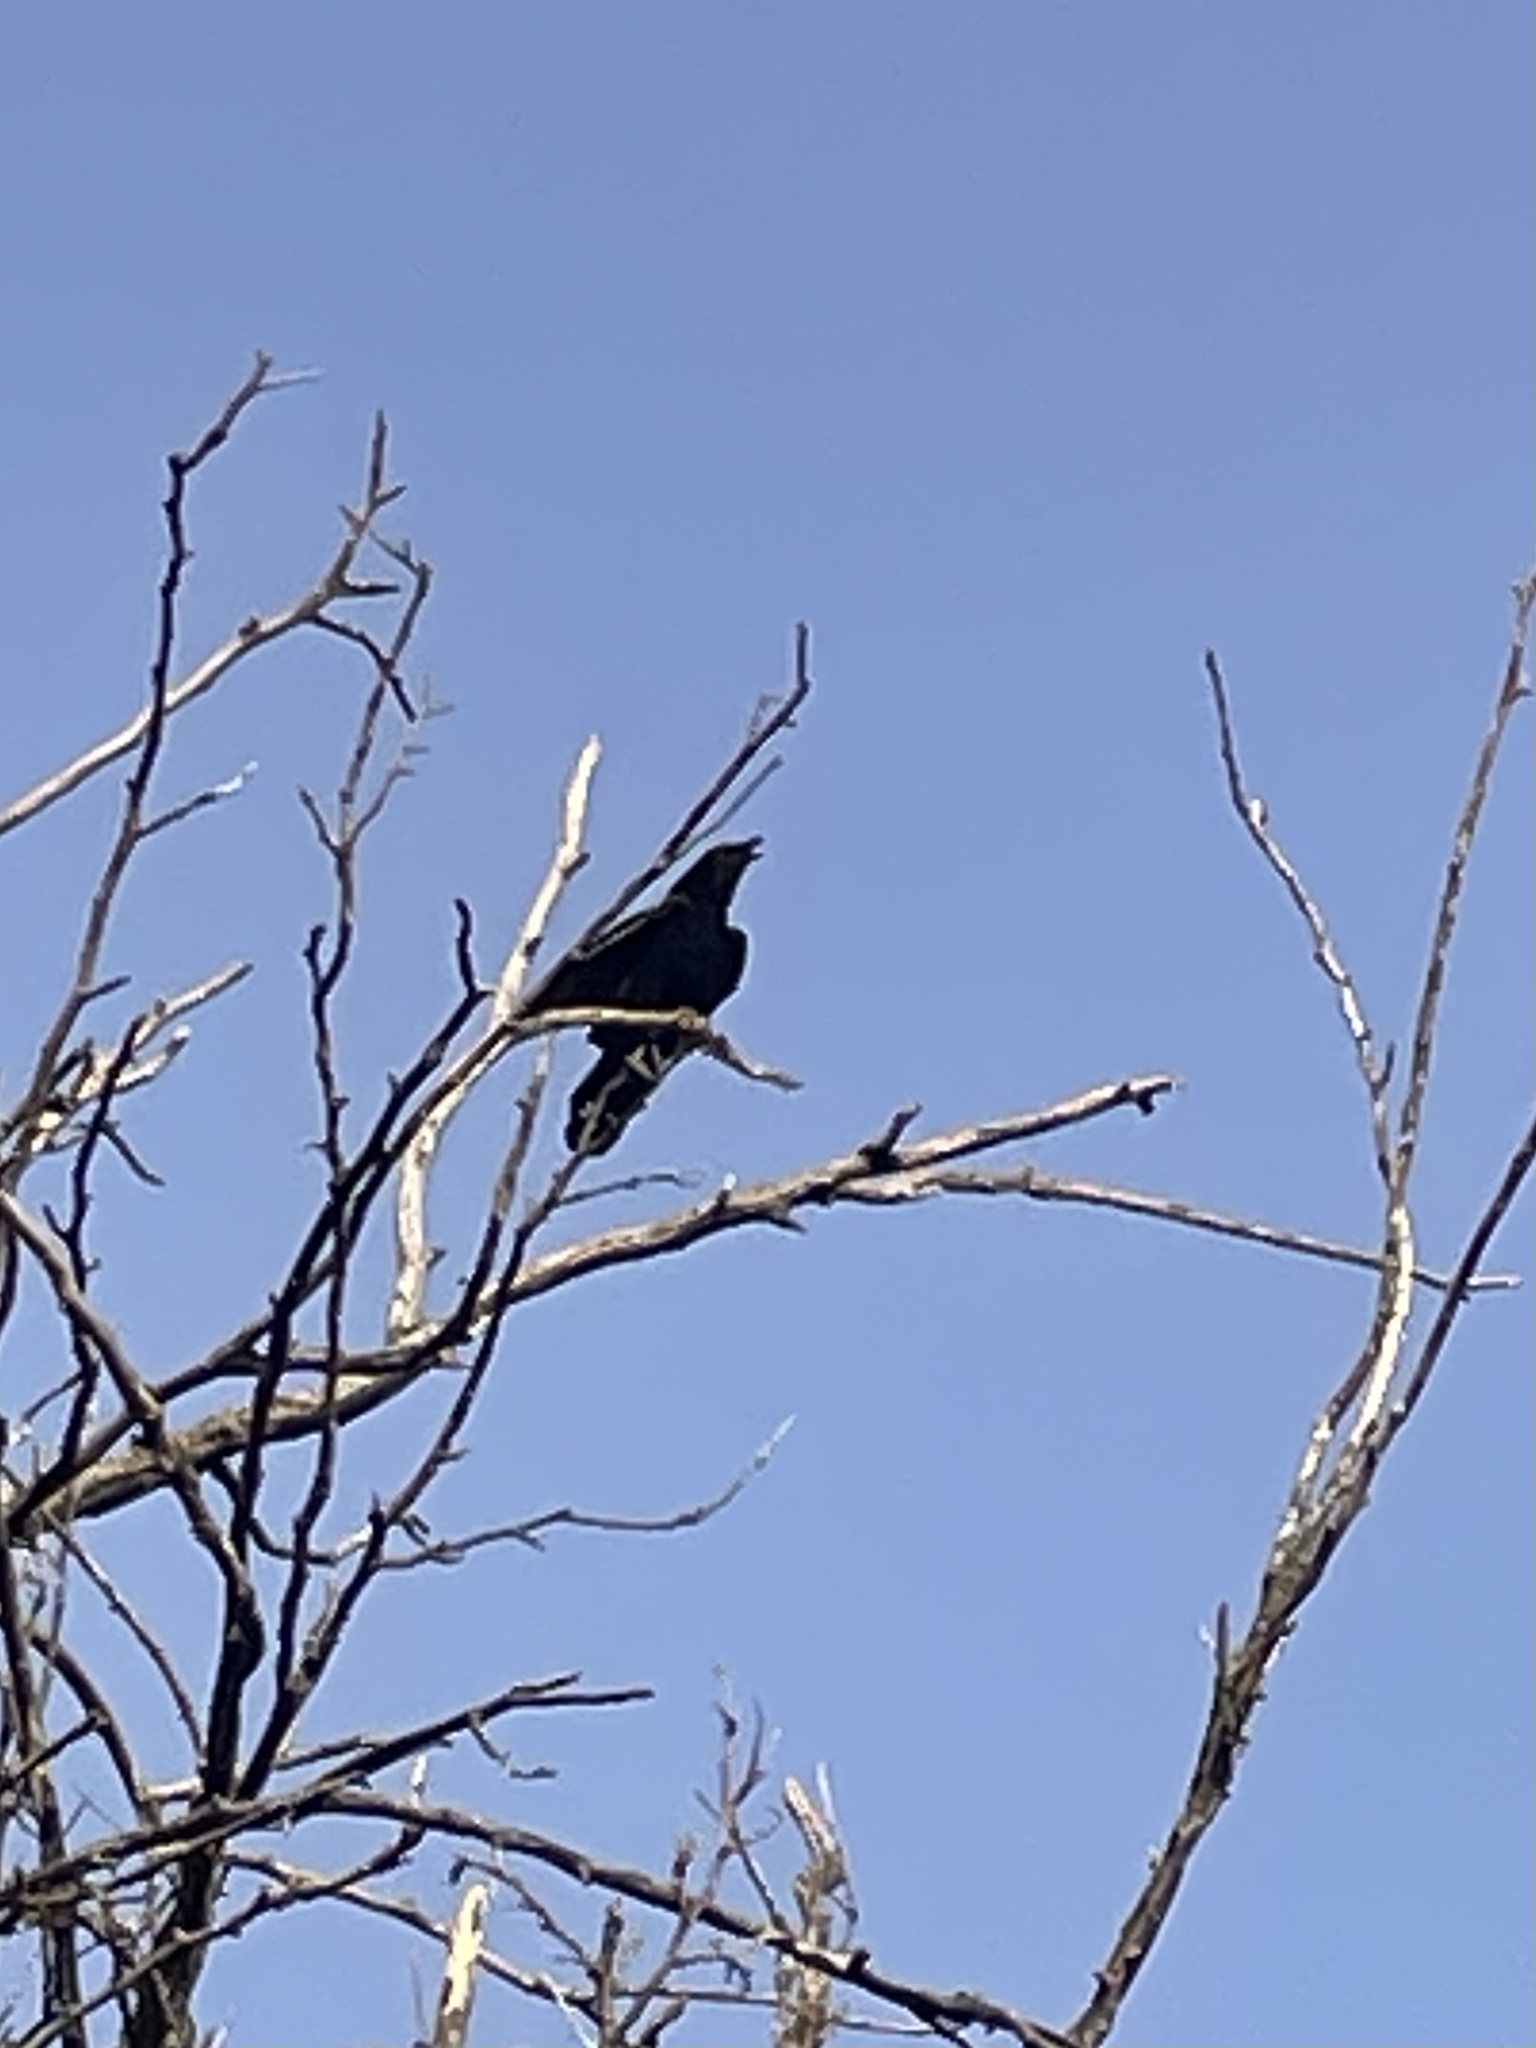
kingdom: Animalia
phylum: Chordata
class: Aves
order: Passeriformes
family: Corvidae
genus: Corvus
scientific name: Corvus brachyrhynchos
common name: American crow
